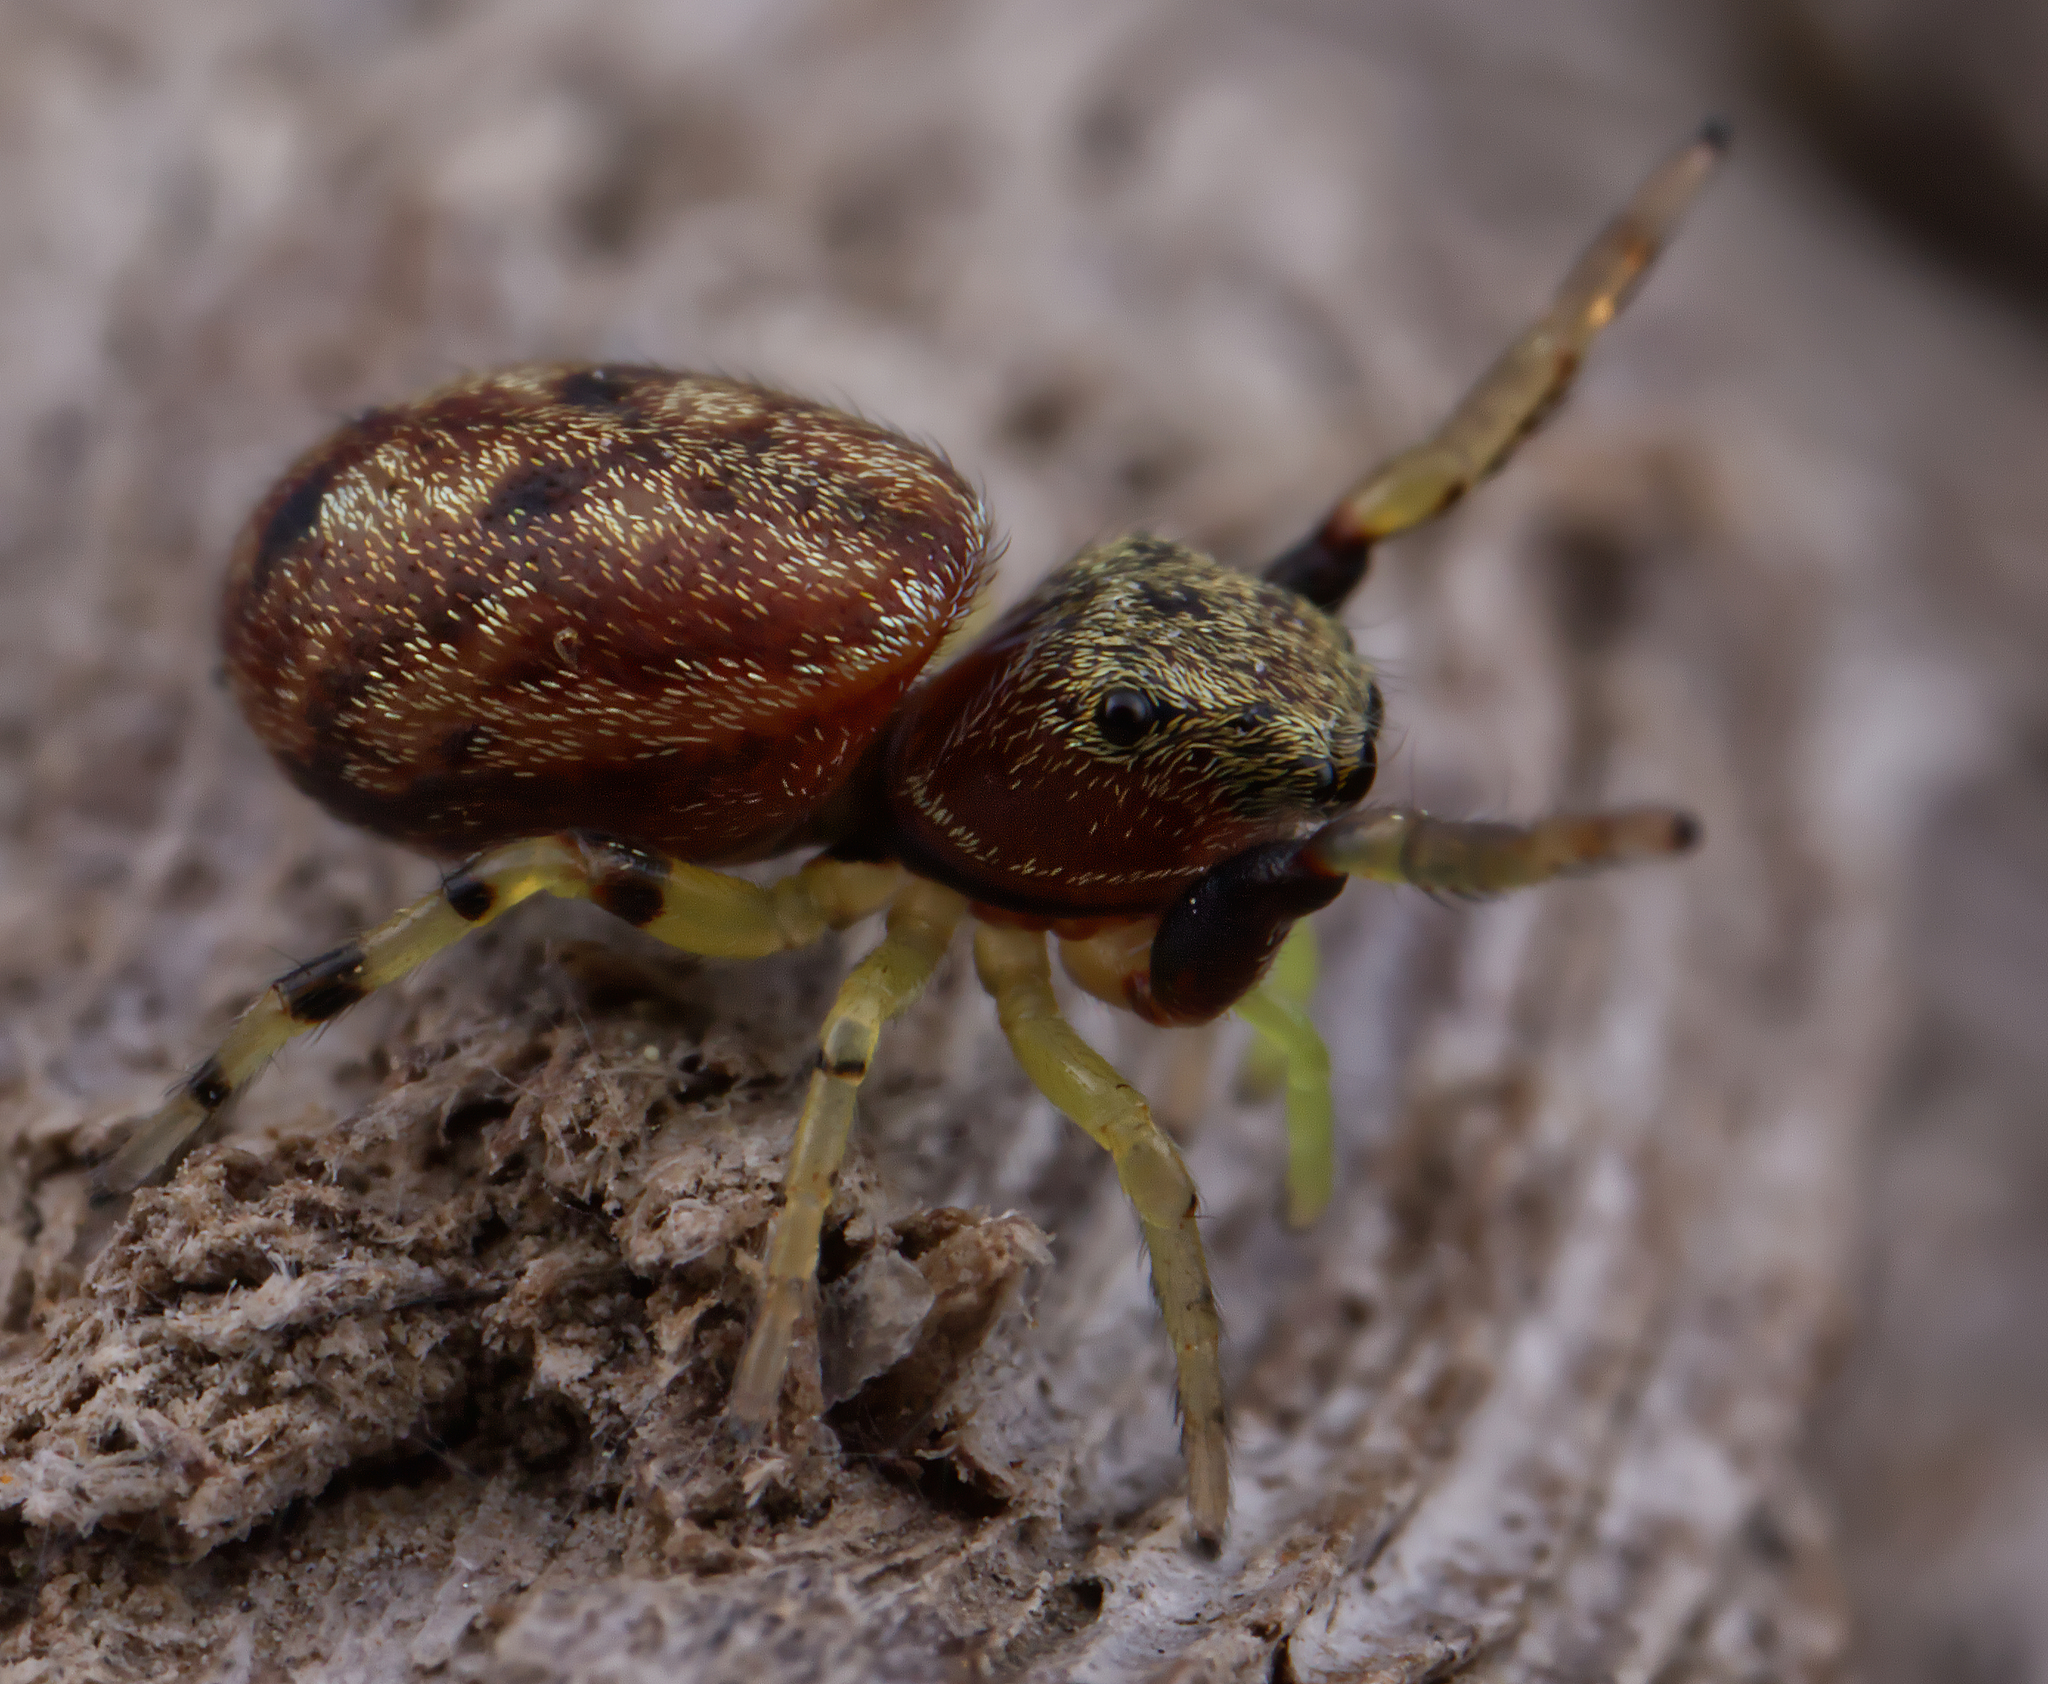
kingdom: Animalia
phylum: Arthropoda
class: Arachnida
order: Araneae
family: Salticidae
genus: Zygoballus
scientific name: Zygoballus rufipes
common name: Jumping spiders
